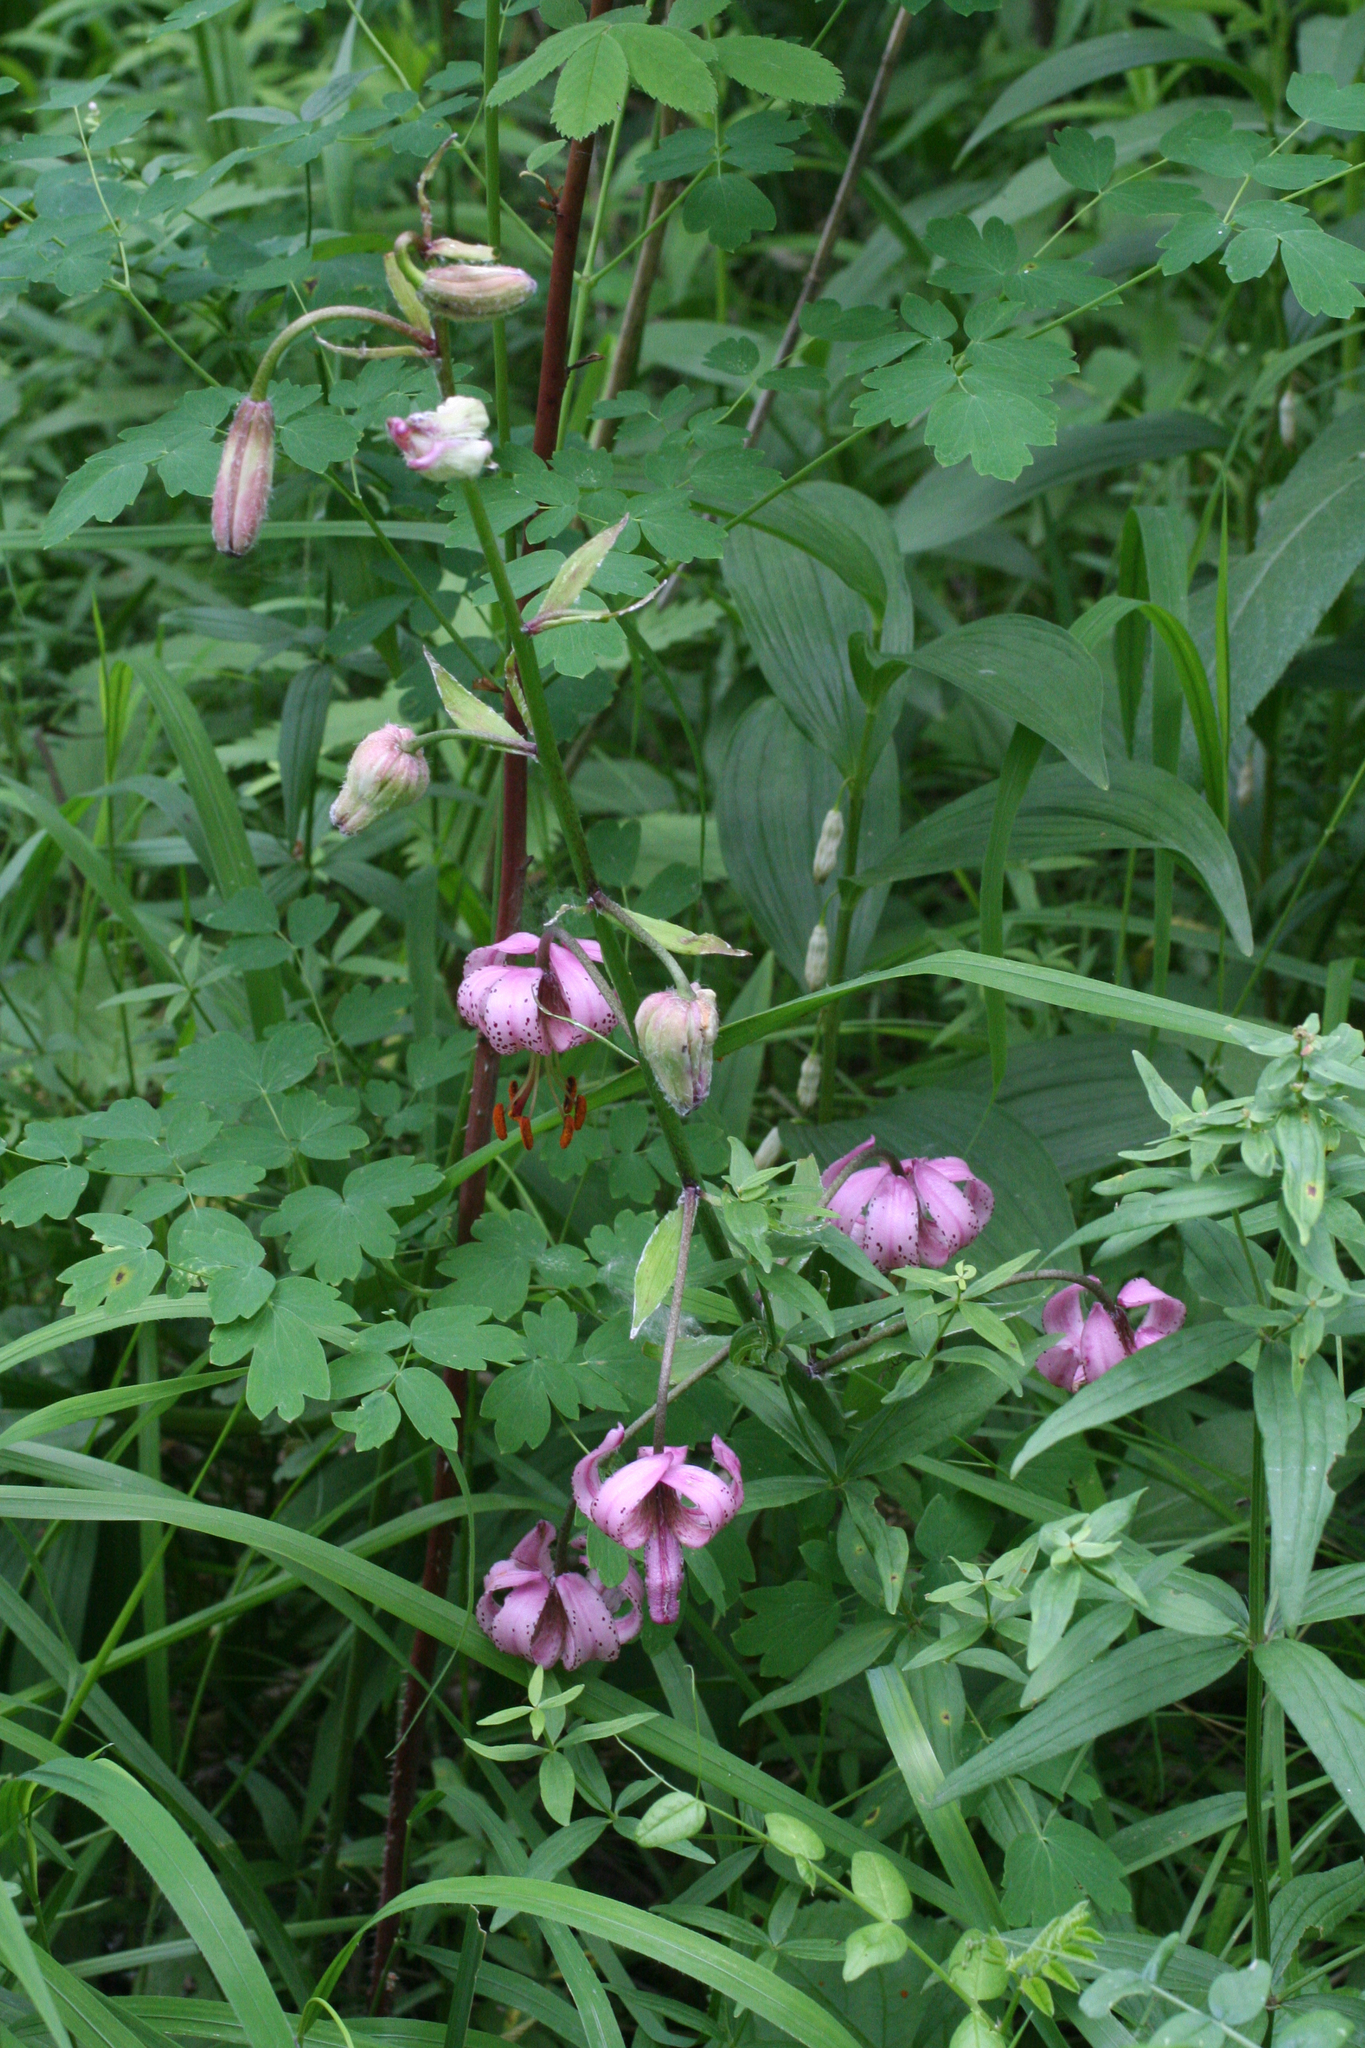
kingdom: Plantae
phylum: Tracheophyta
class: Liliopsida
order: Liliales
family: Liliaceae
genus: Lilium
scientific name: Lilium martagon
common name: Martagon lily
